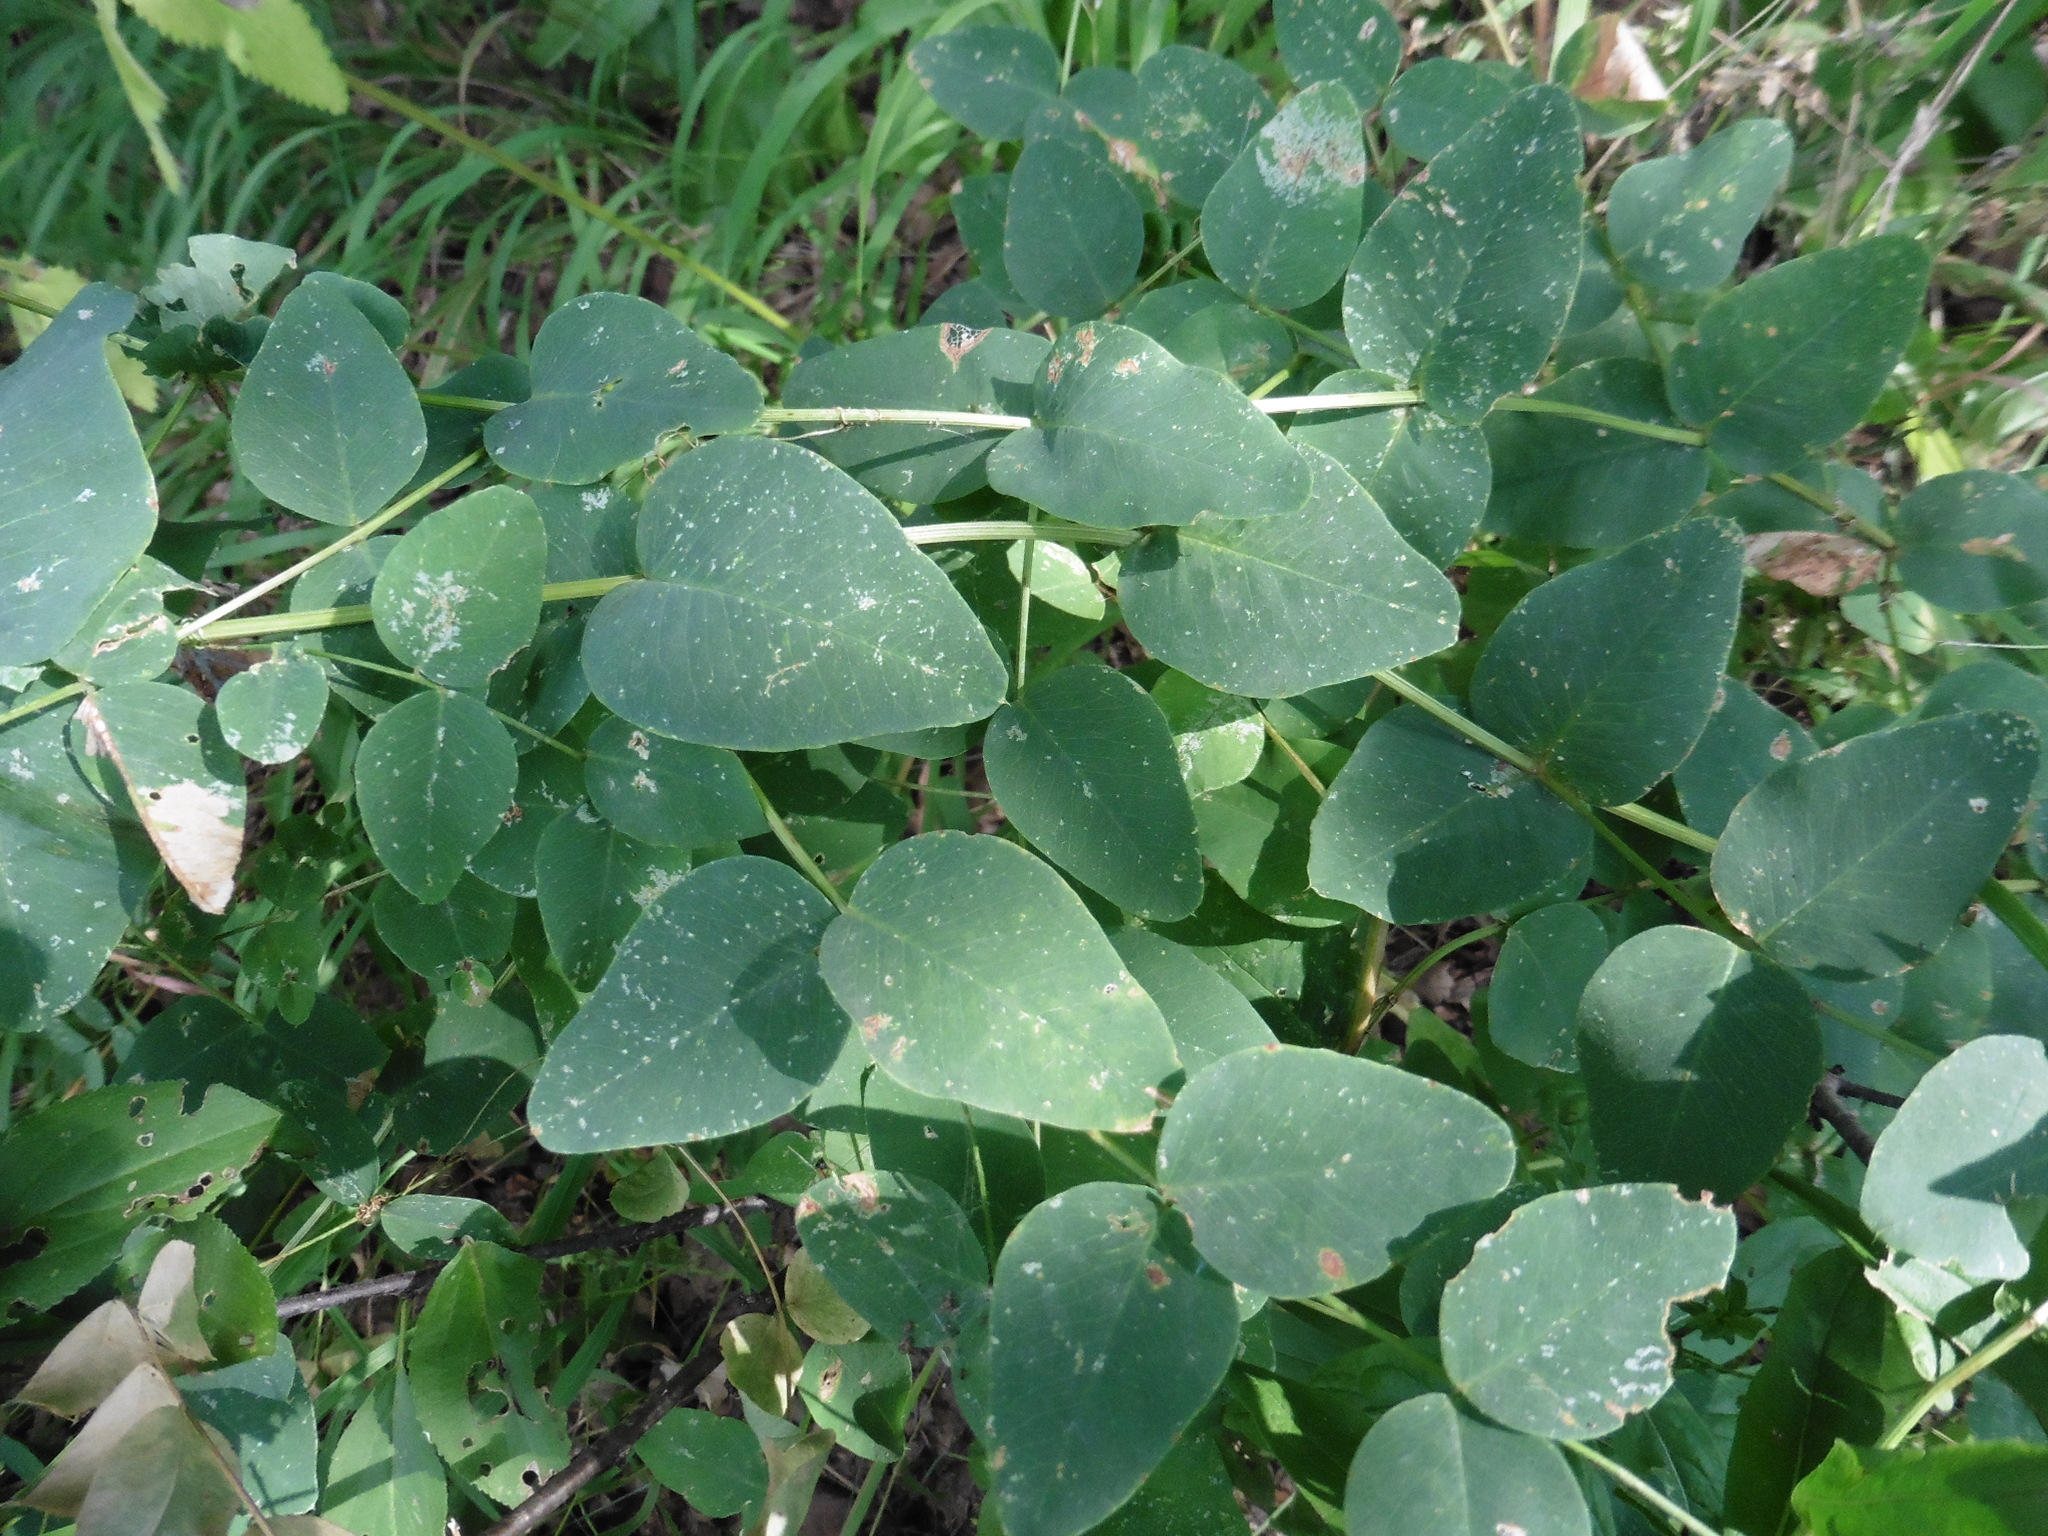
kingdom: Plantae
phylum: Tracheophyta
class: Magnoliopsida
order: Fabales
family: Fabaceae
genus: Vicia
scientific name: Vicia pisiformis
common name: Pale-flower vetch
